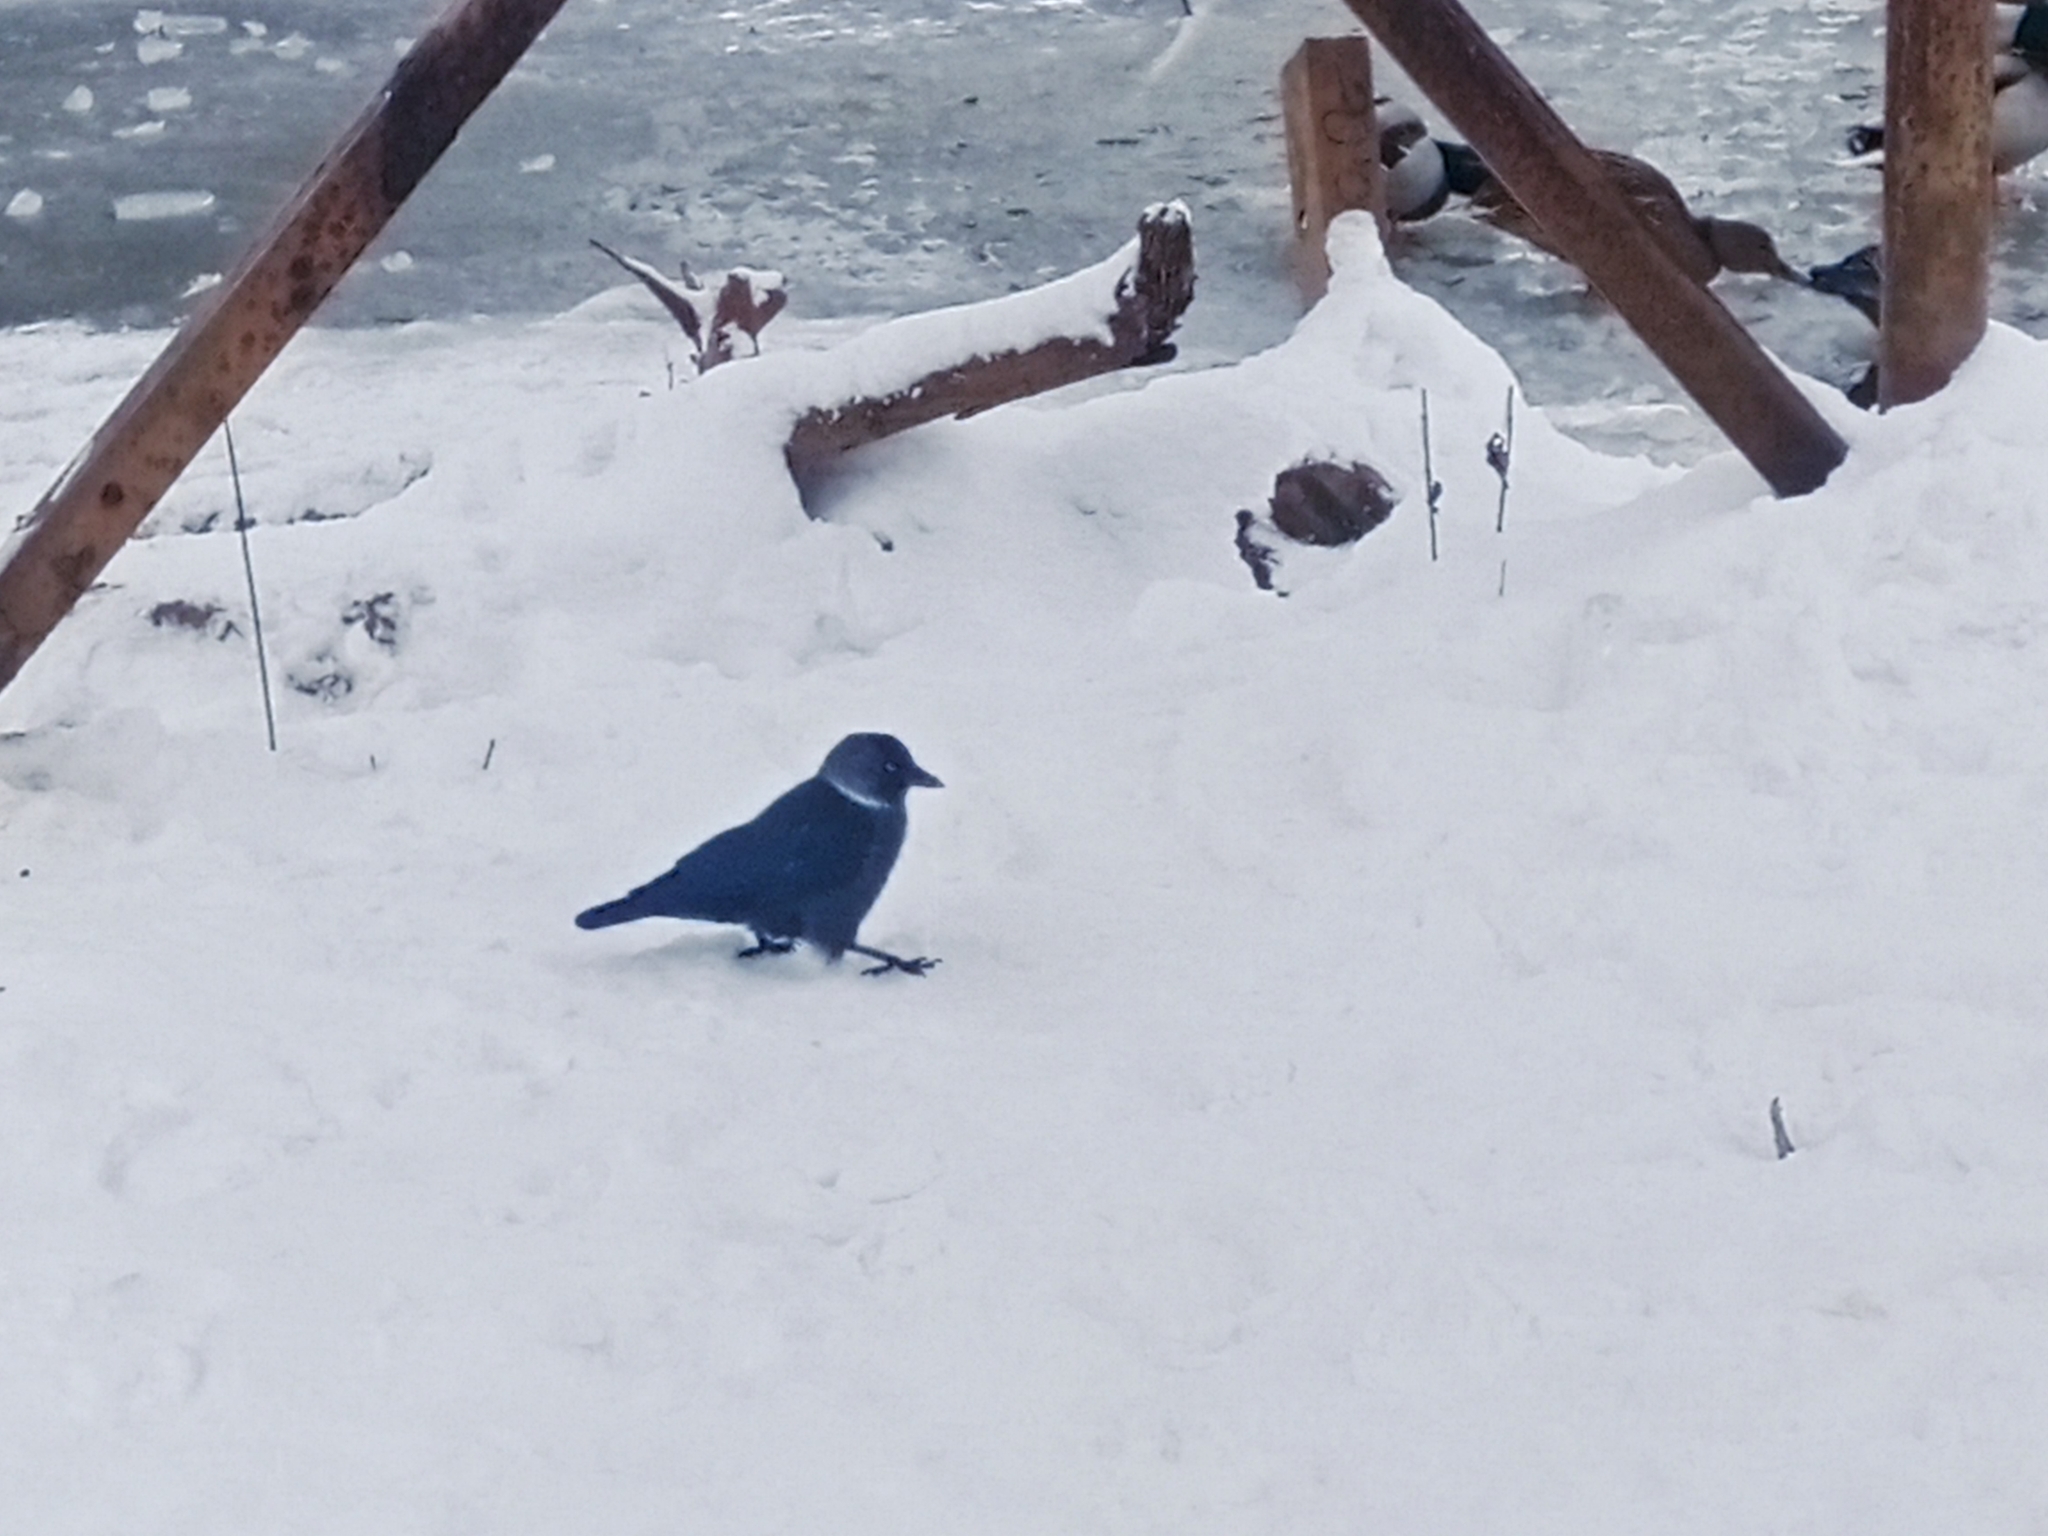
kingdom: Animalia
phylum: Chordata
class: Aves
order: Passeriformes
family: Corvidae
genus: Coloeus
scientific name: Coloeus monedula
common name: Western jackdaw
